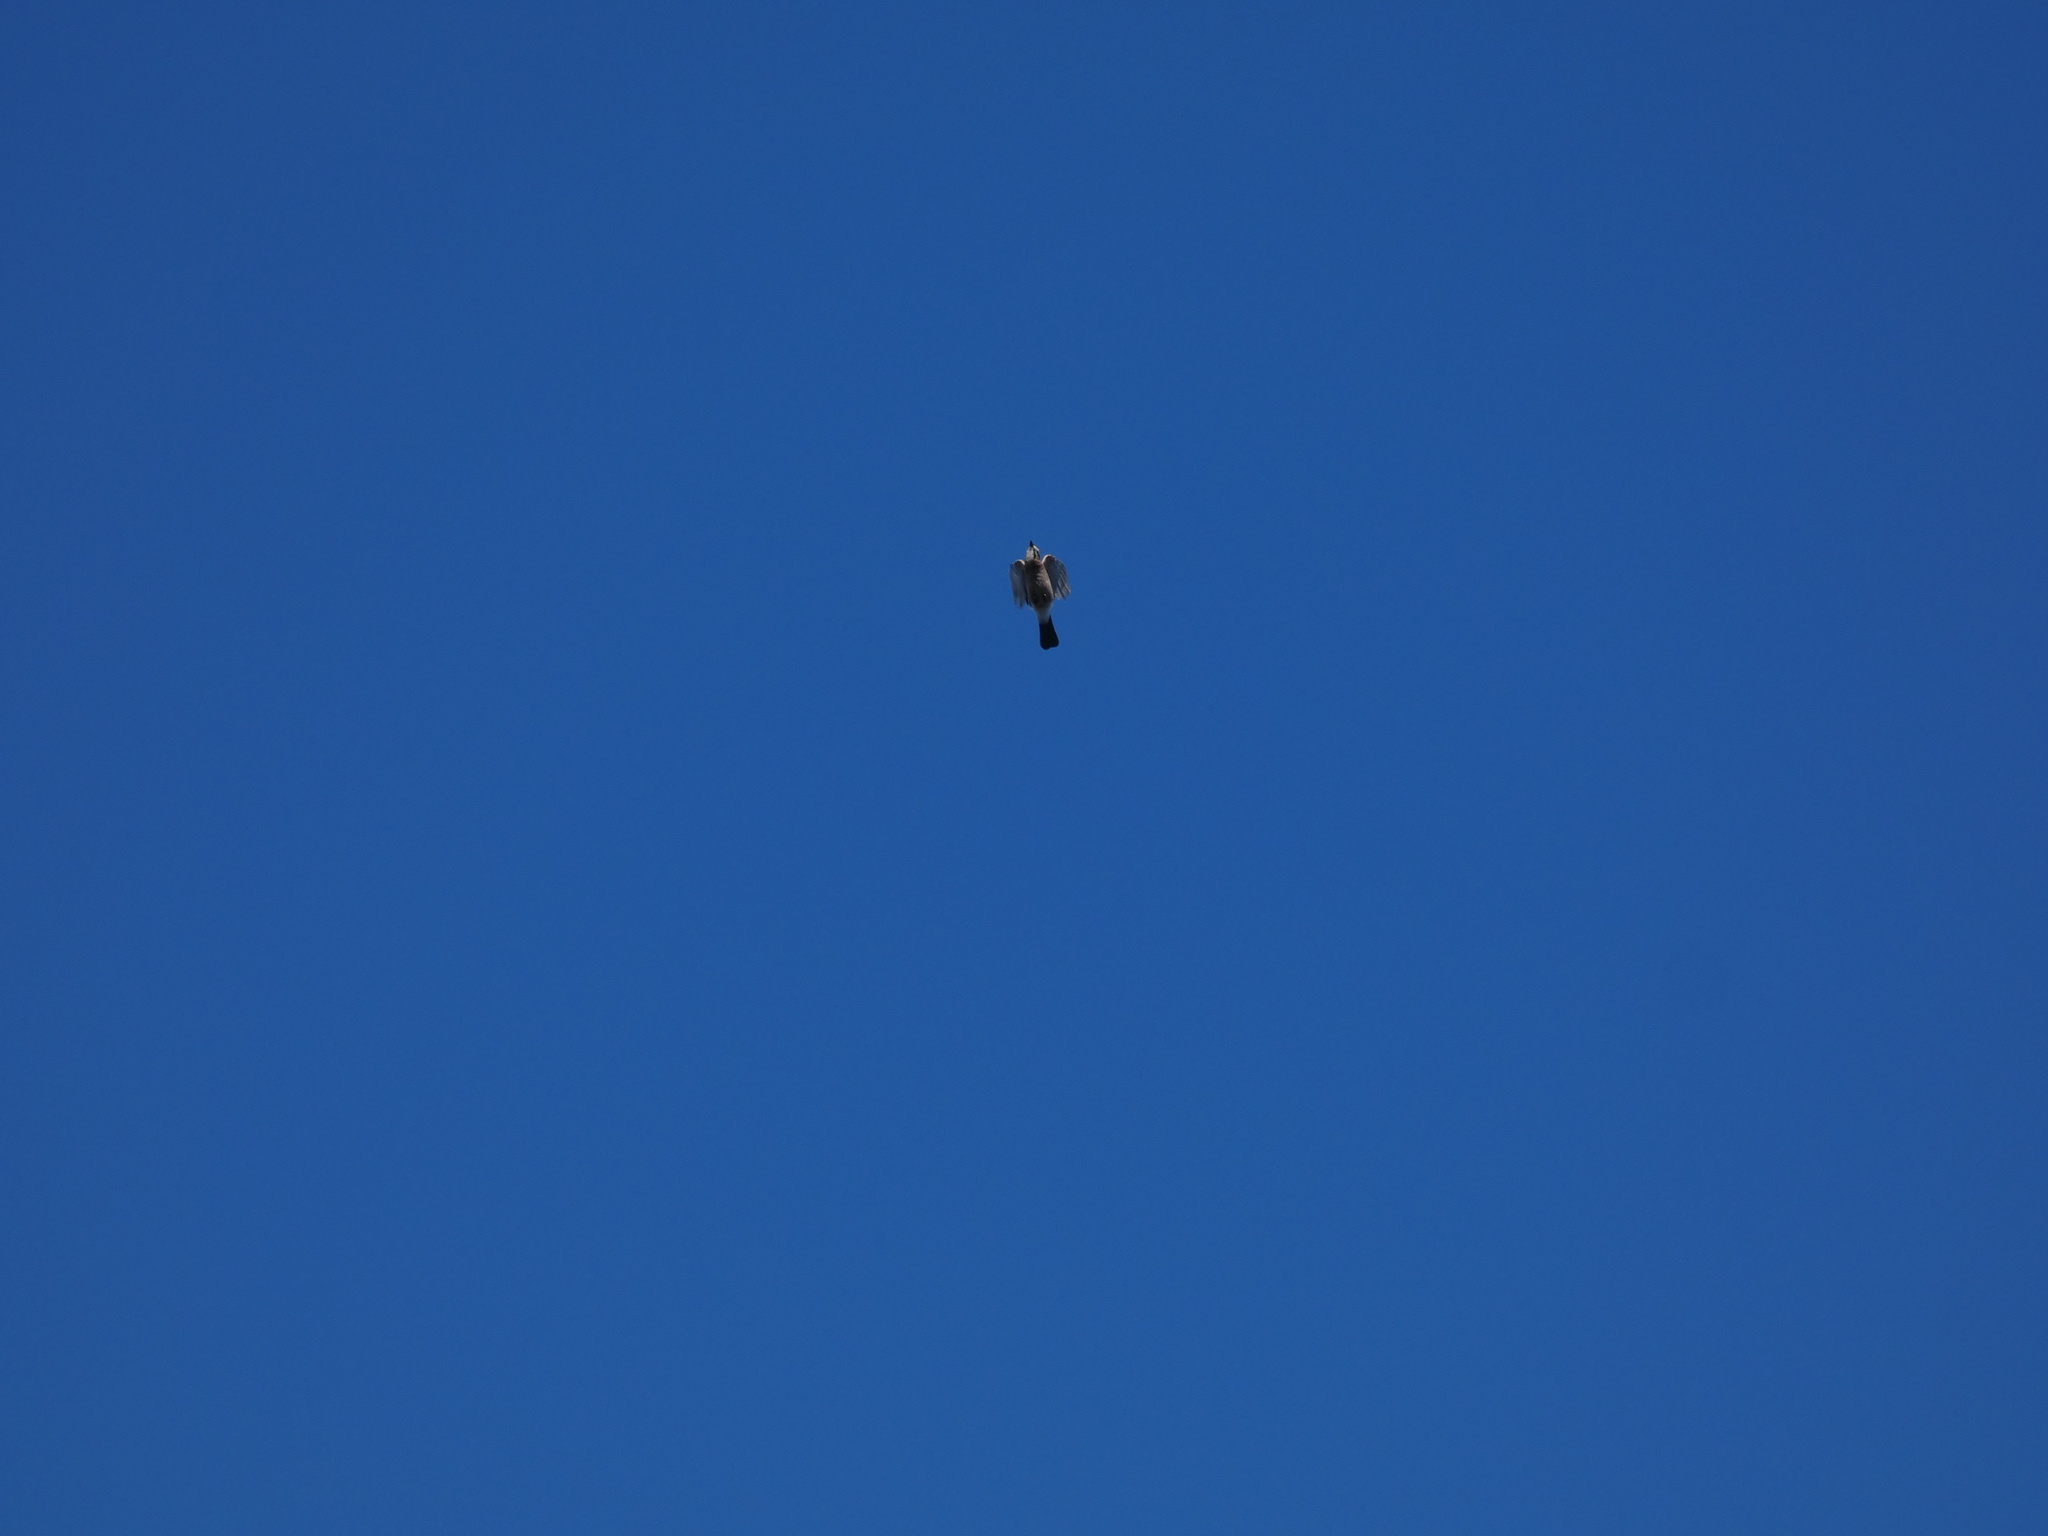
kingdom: Animalia
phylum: Chordata
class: Aves
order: Passeriformes
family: Corvidae
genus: Garrulus
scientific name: Garrulus glandarius
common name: Eurasian jay
